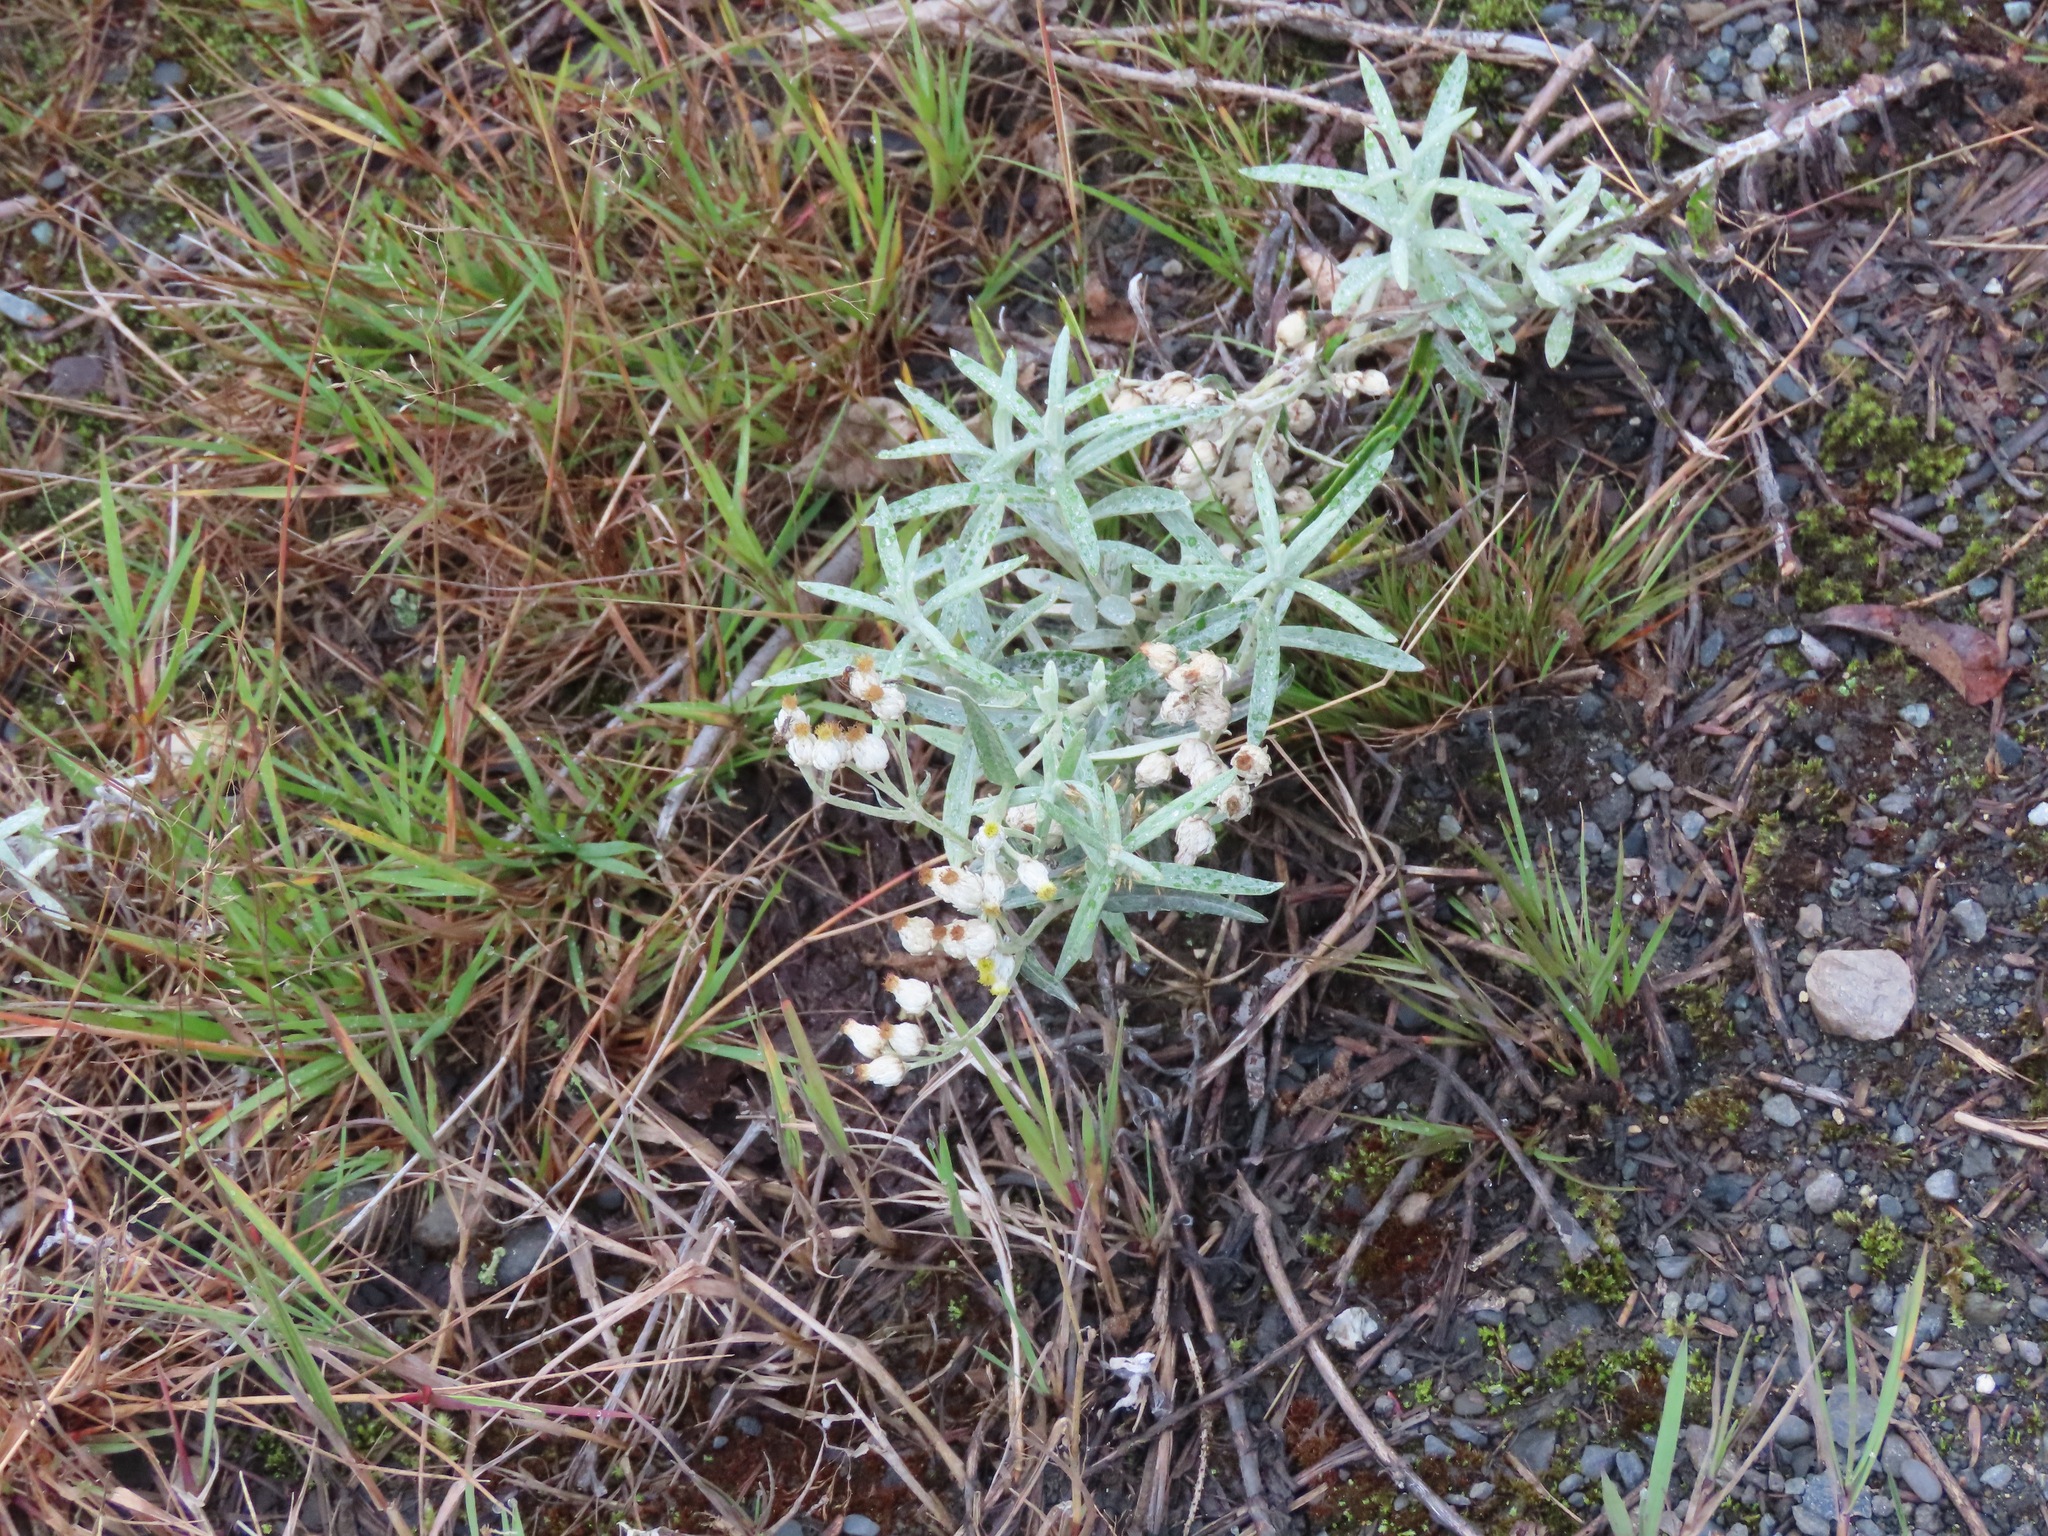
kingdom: Plantae
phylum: Tracheophyta
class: Magnoliopsida
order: Asterales
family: Asteraceae
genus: Anaphalis
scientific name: Anaphalis margaritacea
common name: Pearly everlasting
